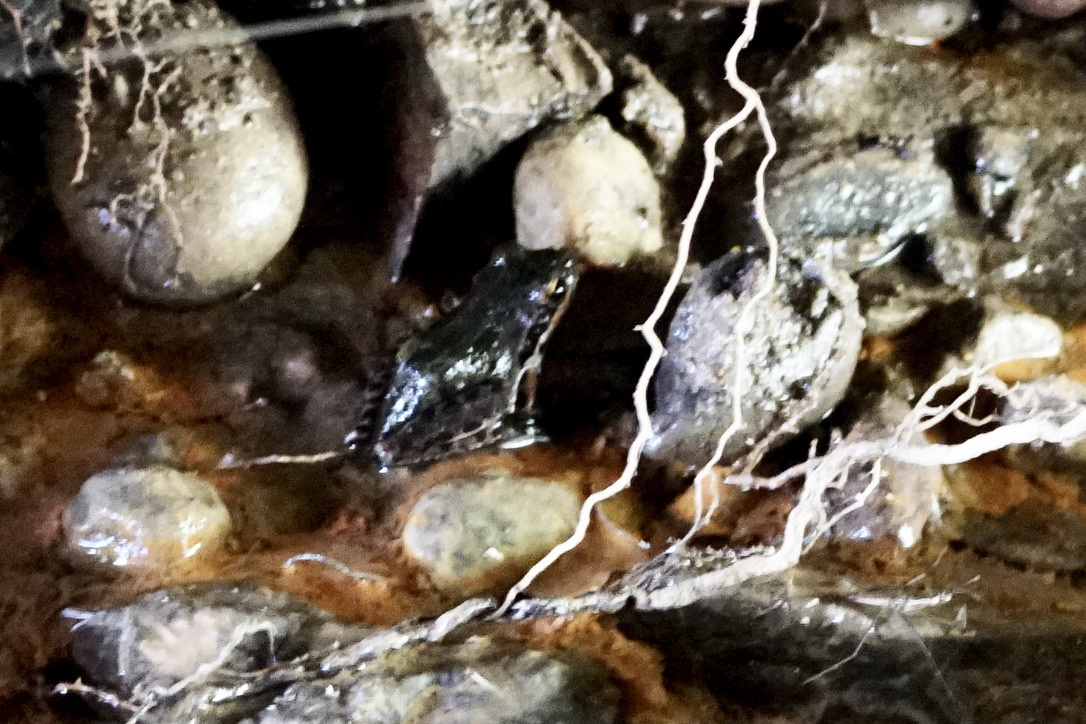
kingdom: Animalia
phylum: Chordata
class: Amphibia
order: Anura
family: Hylidae
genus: Pseudacris
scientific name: Pseudacris regilla
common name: Pacific chorus frog
